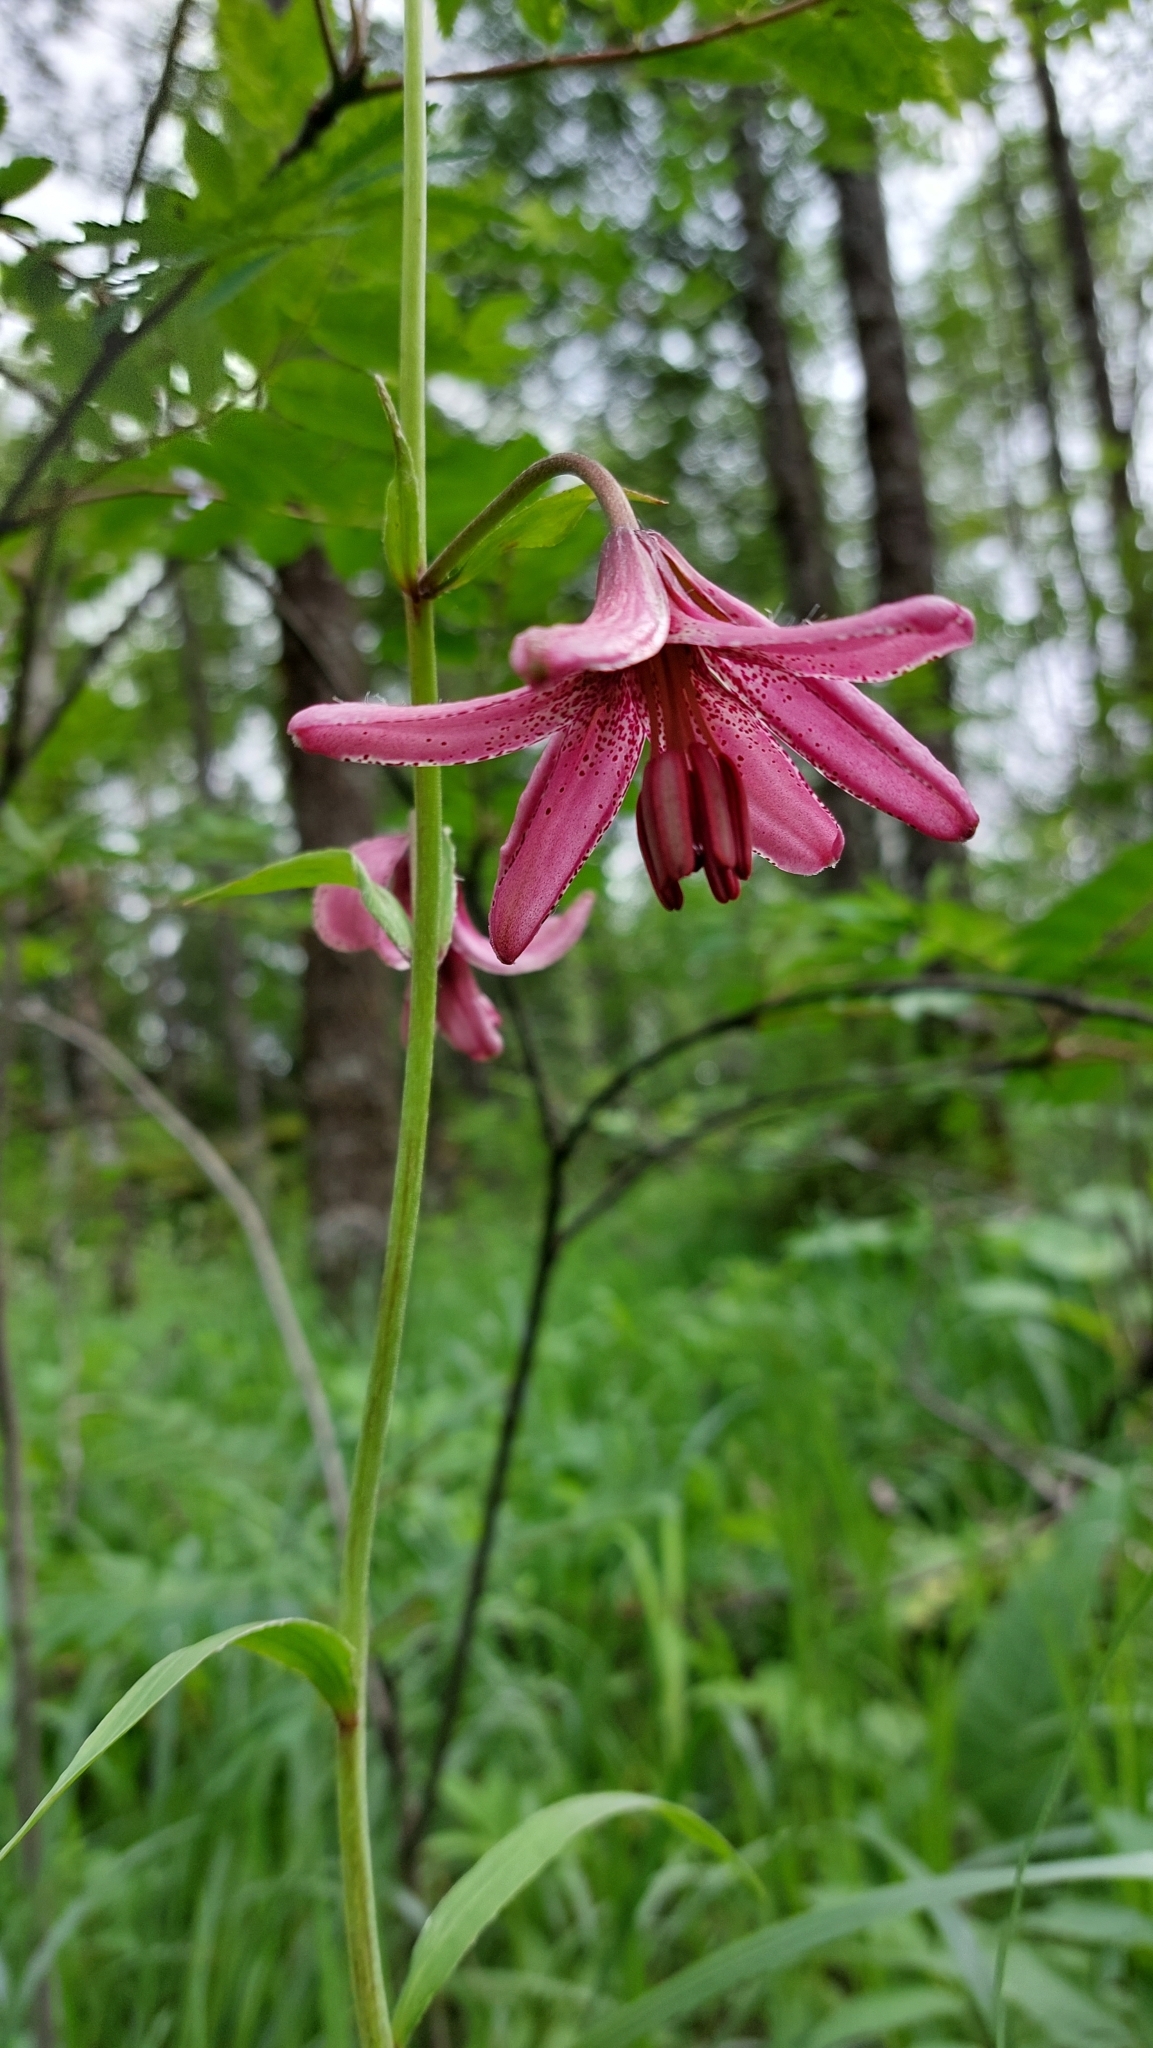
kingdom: Plantae
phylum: Tracheophyta
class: Liliopsida
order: Liliales
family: Liliaceae
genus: Lilium
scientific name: Lilium martagon
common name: Martagon lily
